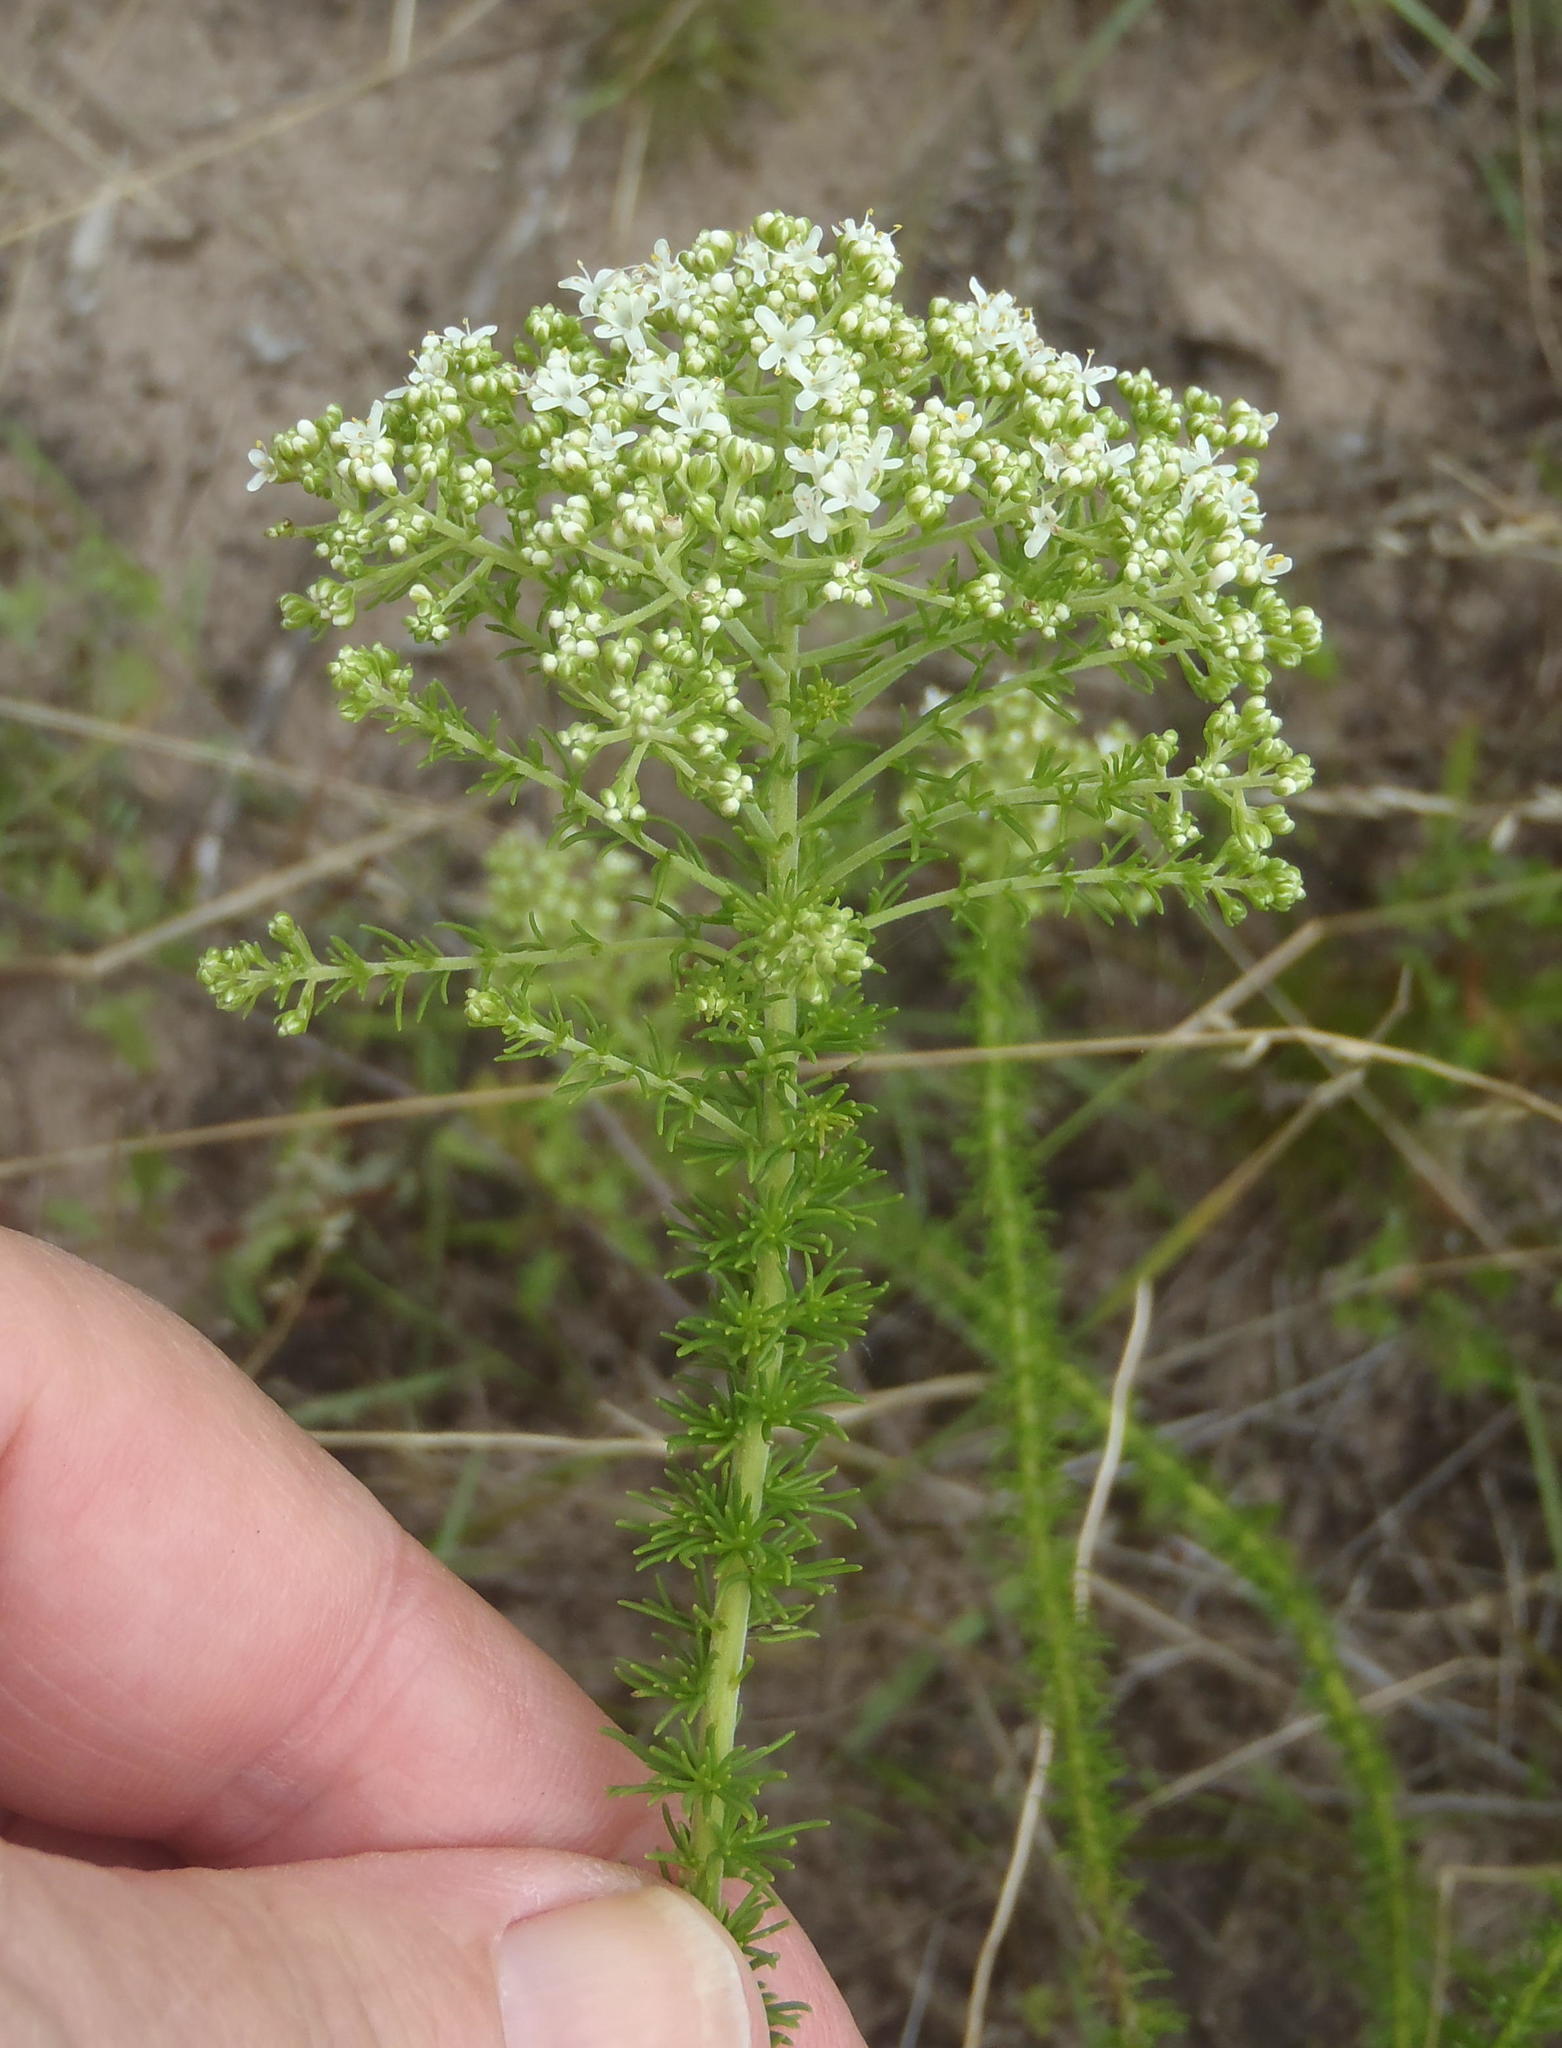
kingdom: Plantae
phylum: Tracheophyta
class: Magnoliopsida
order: Lamiales
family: Scrophulariaceae
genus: Selago
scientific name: Selago corymbosa
